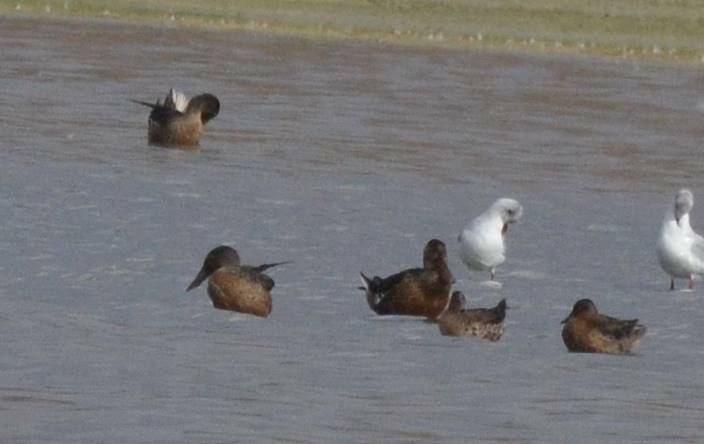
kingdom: Animalia
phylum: Chordata
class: Aves
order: Anseriformes
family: Anatidae
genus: Spatula
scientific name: Spatula clypeata
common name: Northern shoveler
